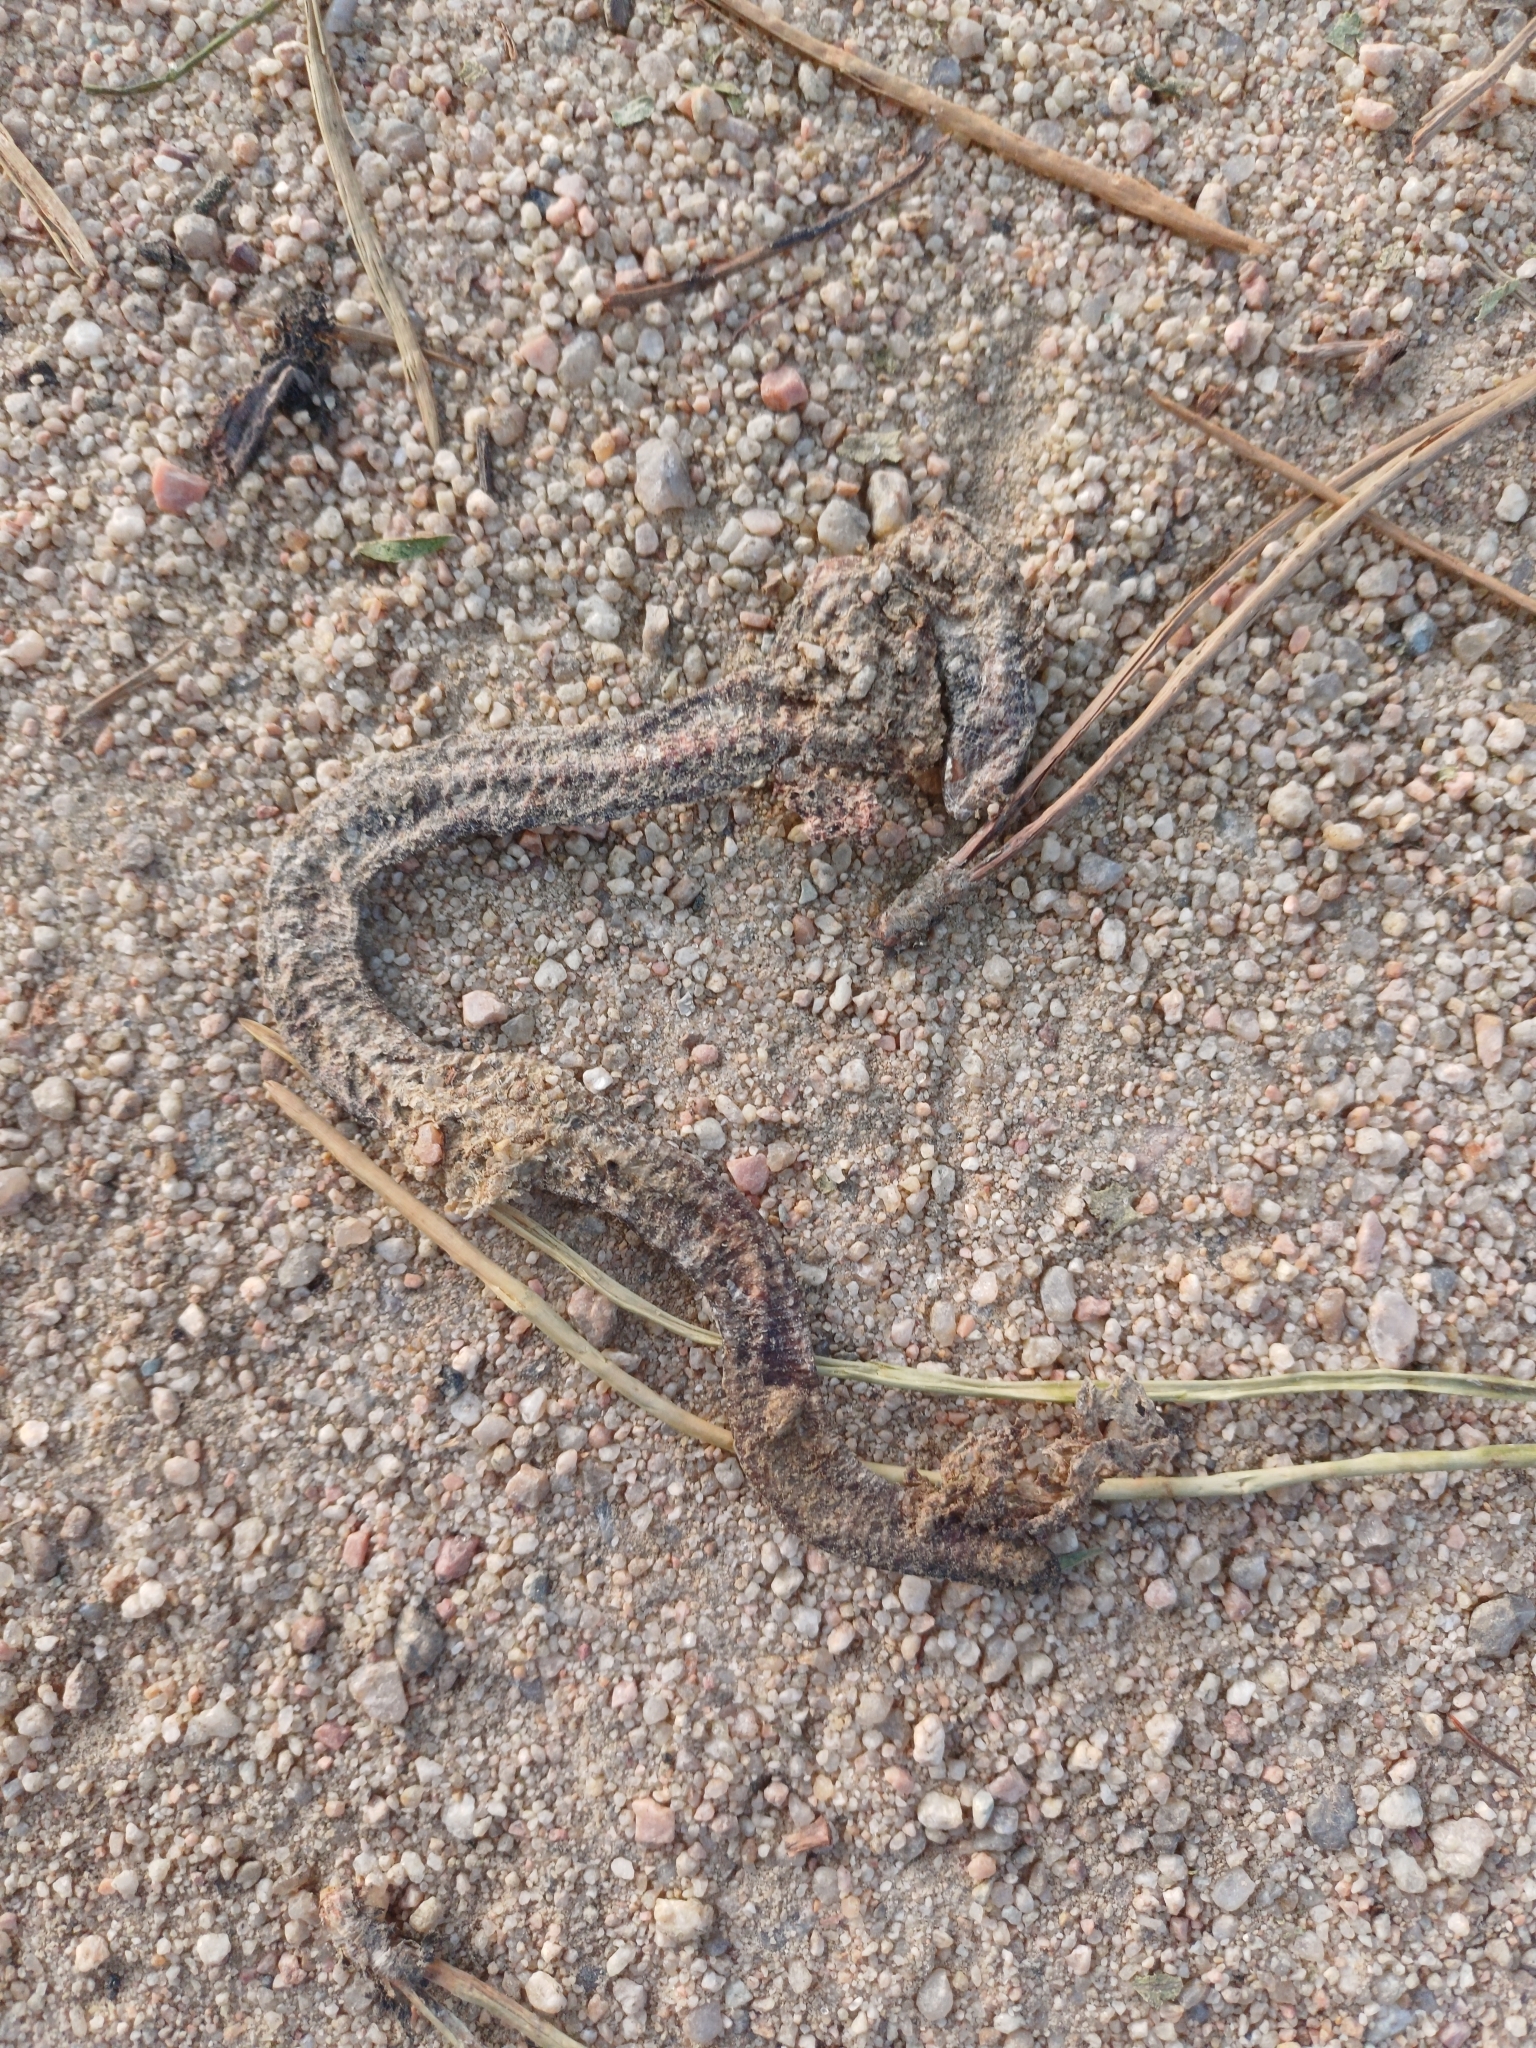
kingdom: Animalia
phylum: Chordata
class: Squamata
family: Amphisbaenidae
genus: Amphisbaena
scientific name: Amphisbaena darwinii
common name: Darwin's ringed worm lizard
